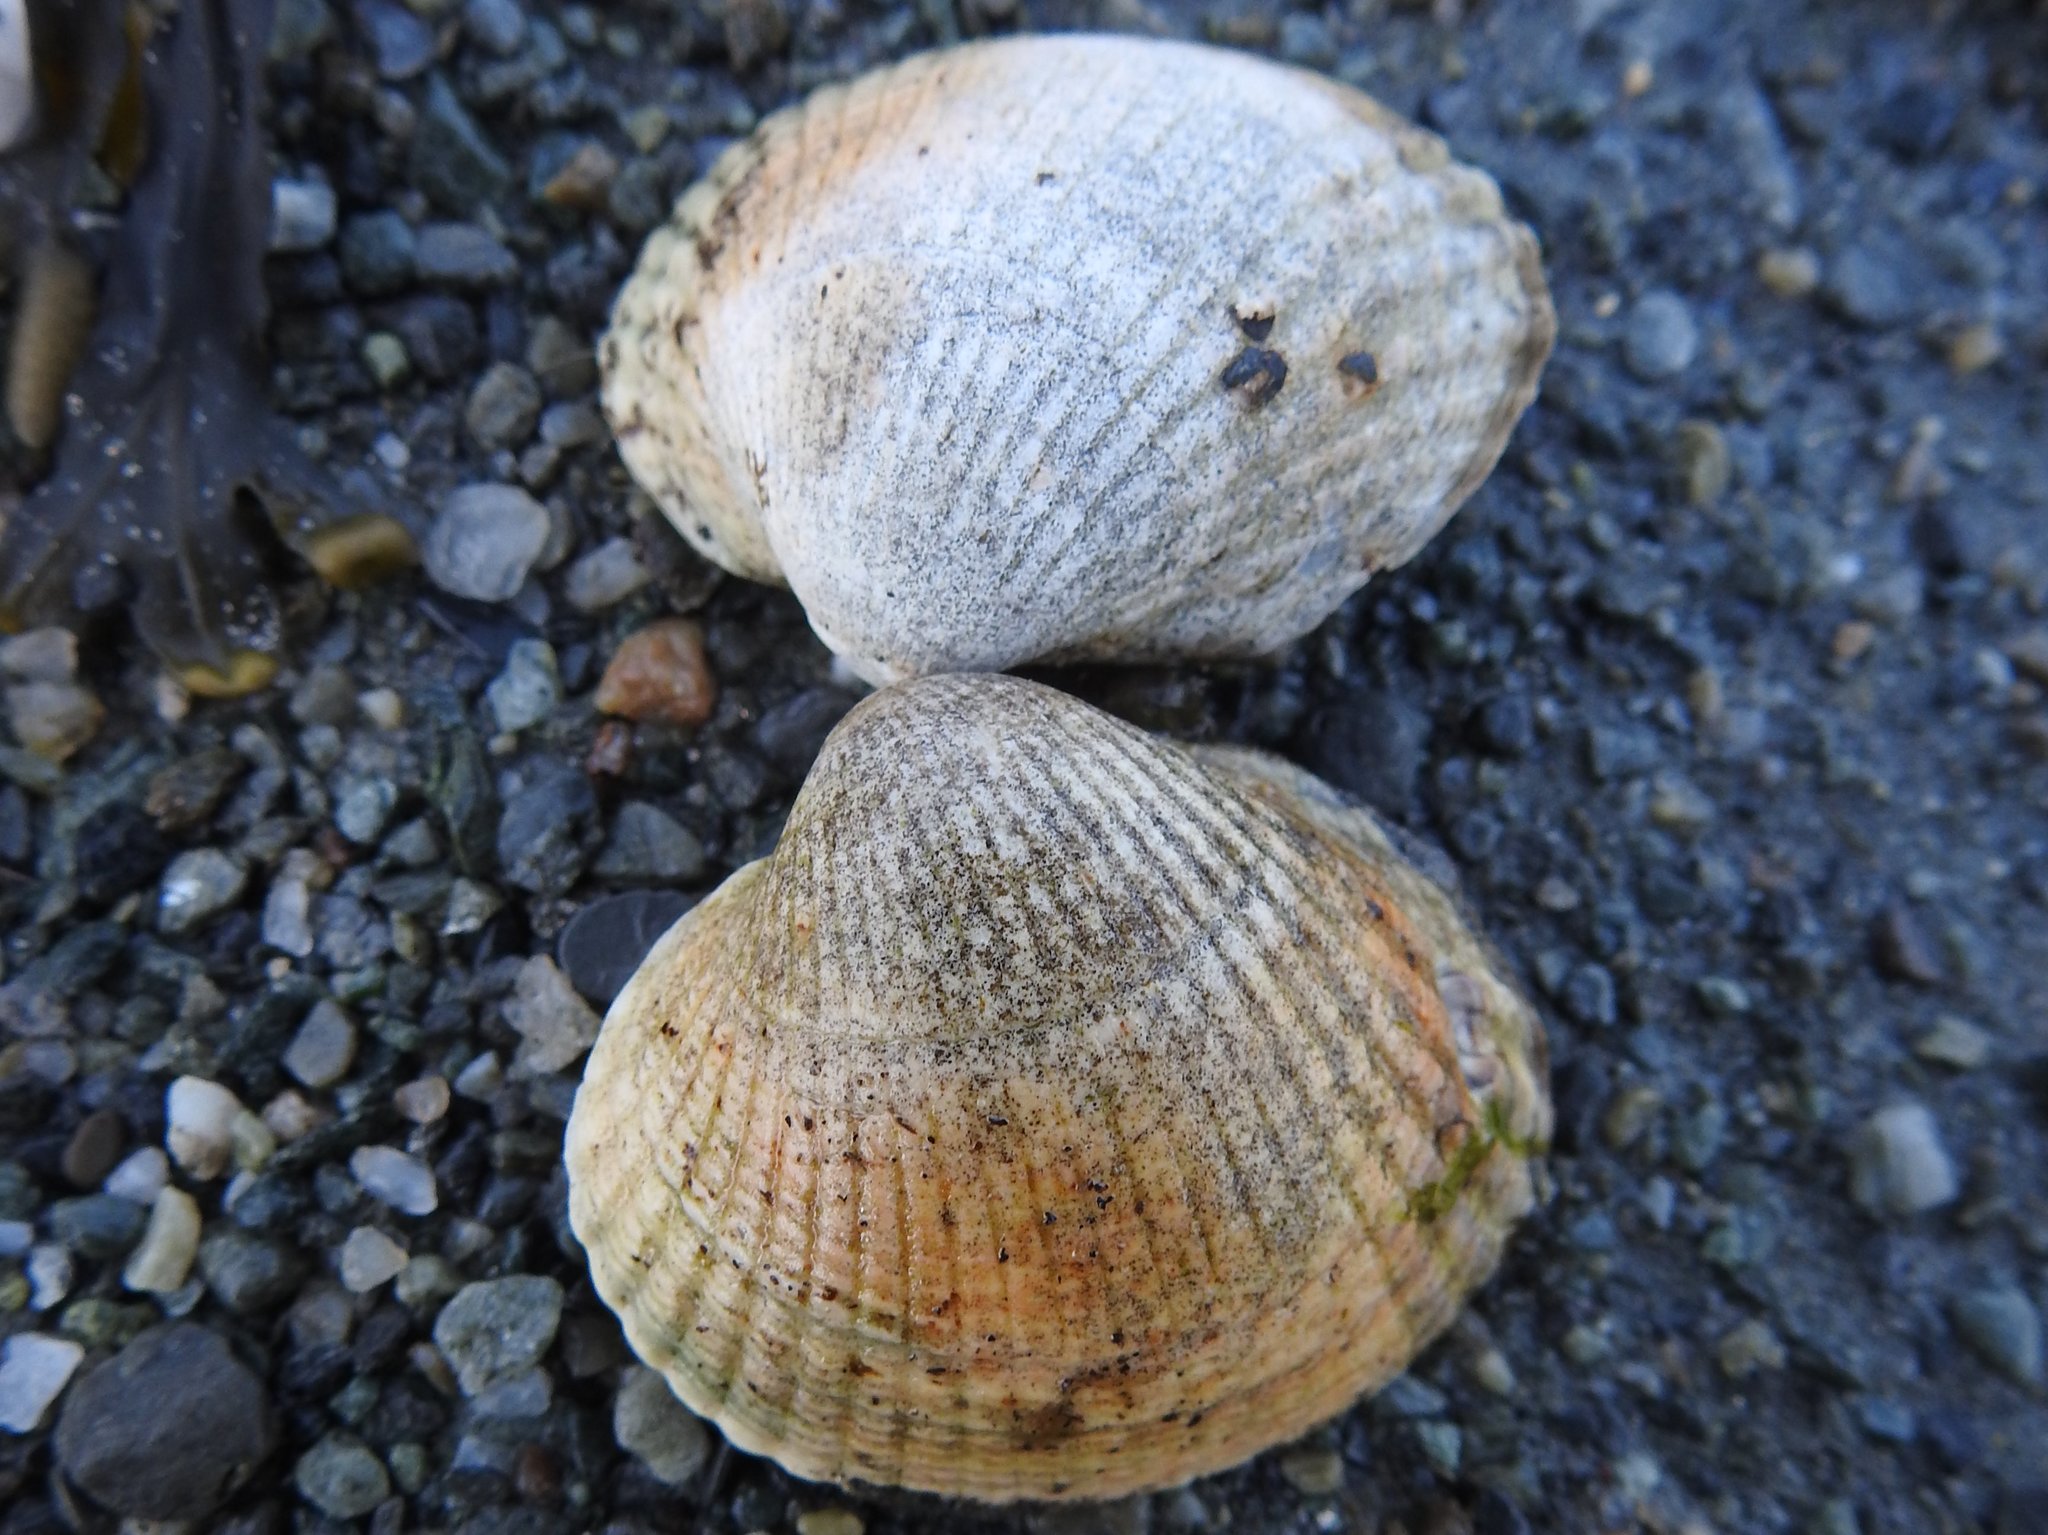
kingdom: Animalia
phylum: Mollusca
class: Bivalvia
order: Cardiida
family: Cardiidae
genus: Cerastoderma
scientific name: Cerastoderma edule
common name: Common cockle
